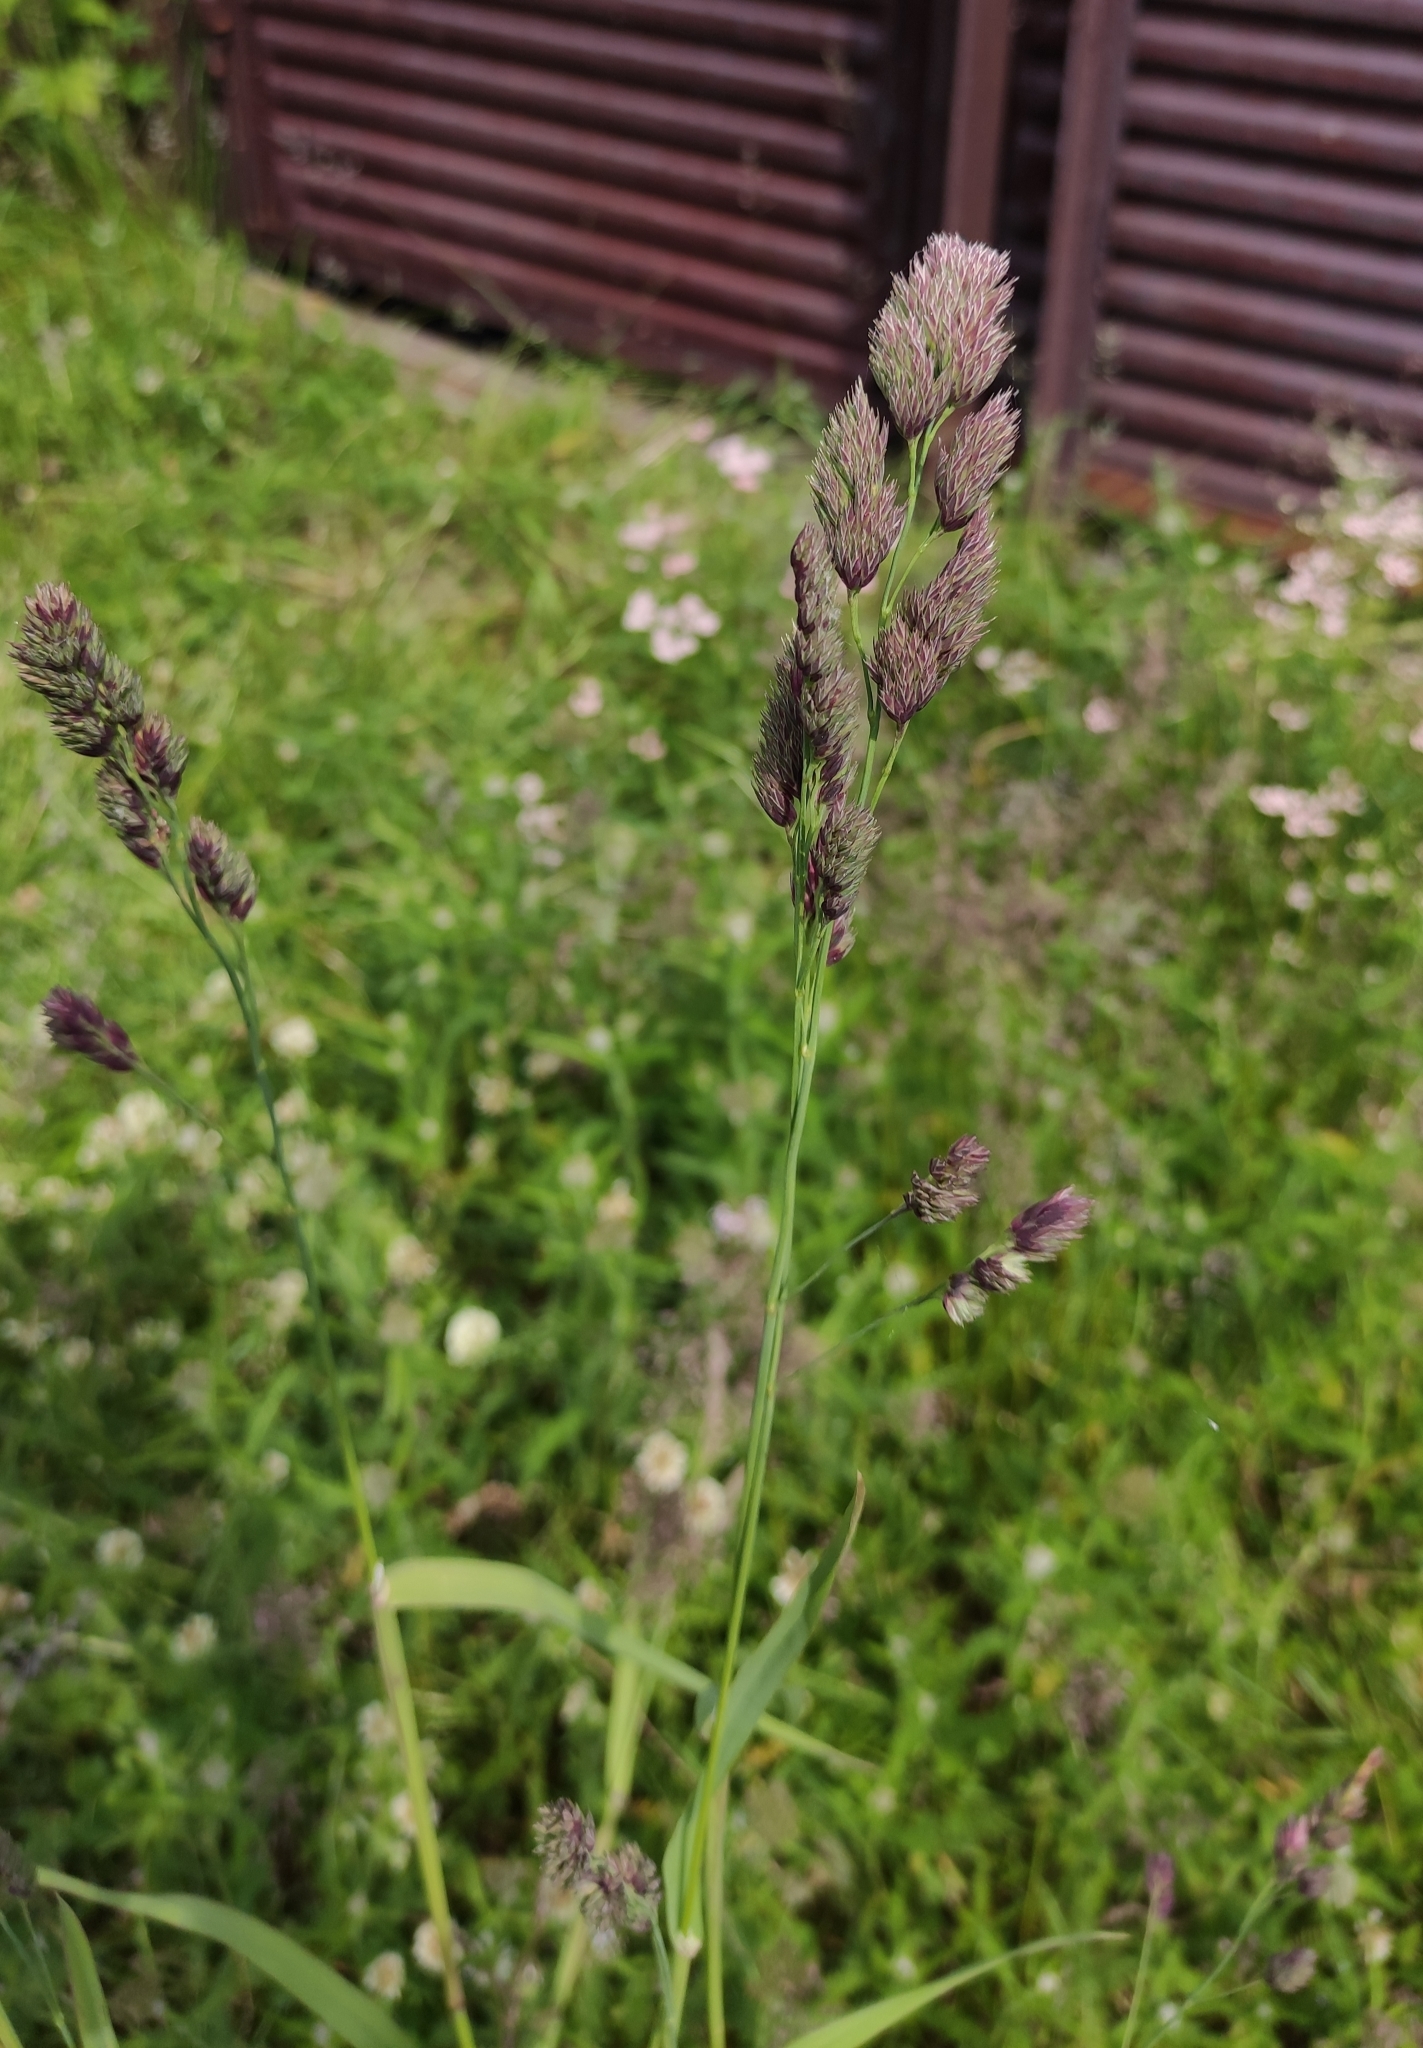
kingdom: Plantae
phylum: Tracheophyta
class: Liliopsida
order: Poales
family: Poaceae
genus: Dactylis
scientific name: Dactylis glomerata
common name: Orchardgrass
